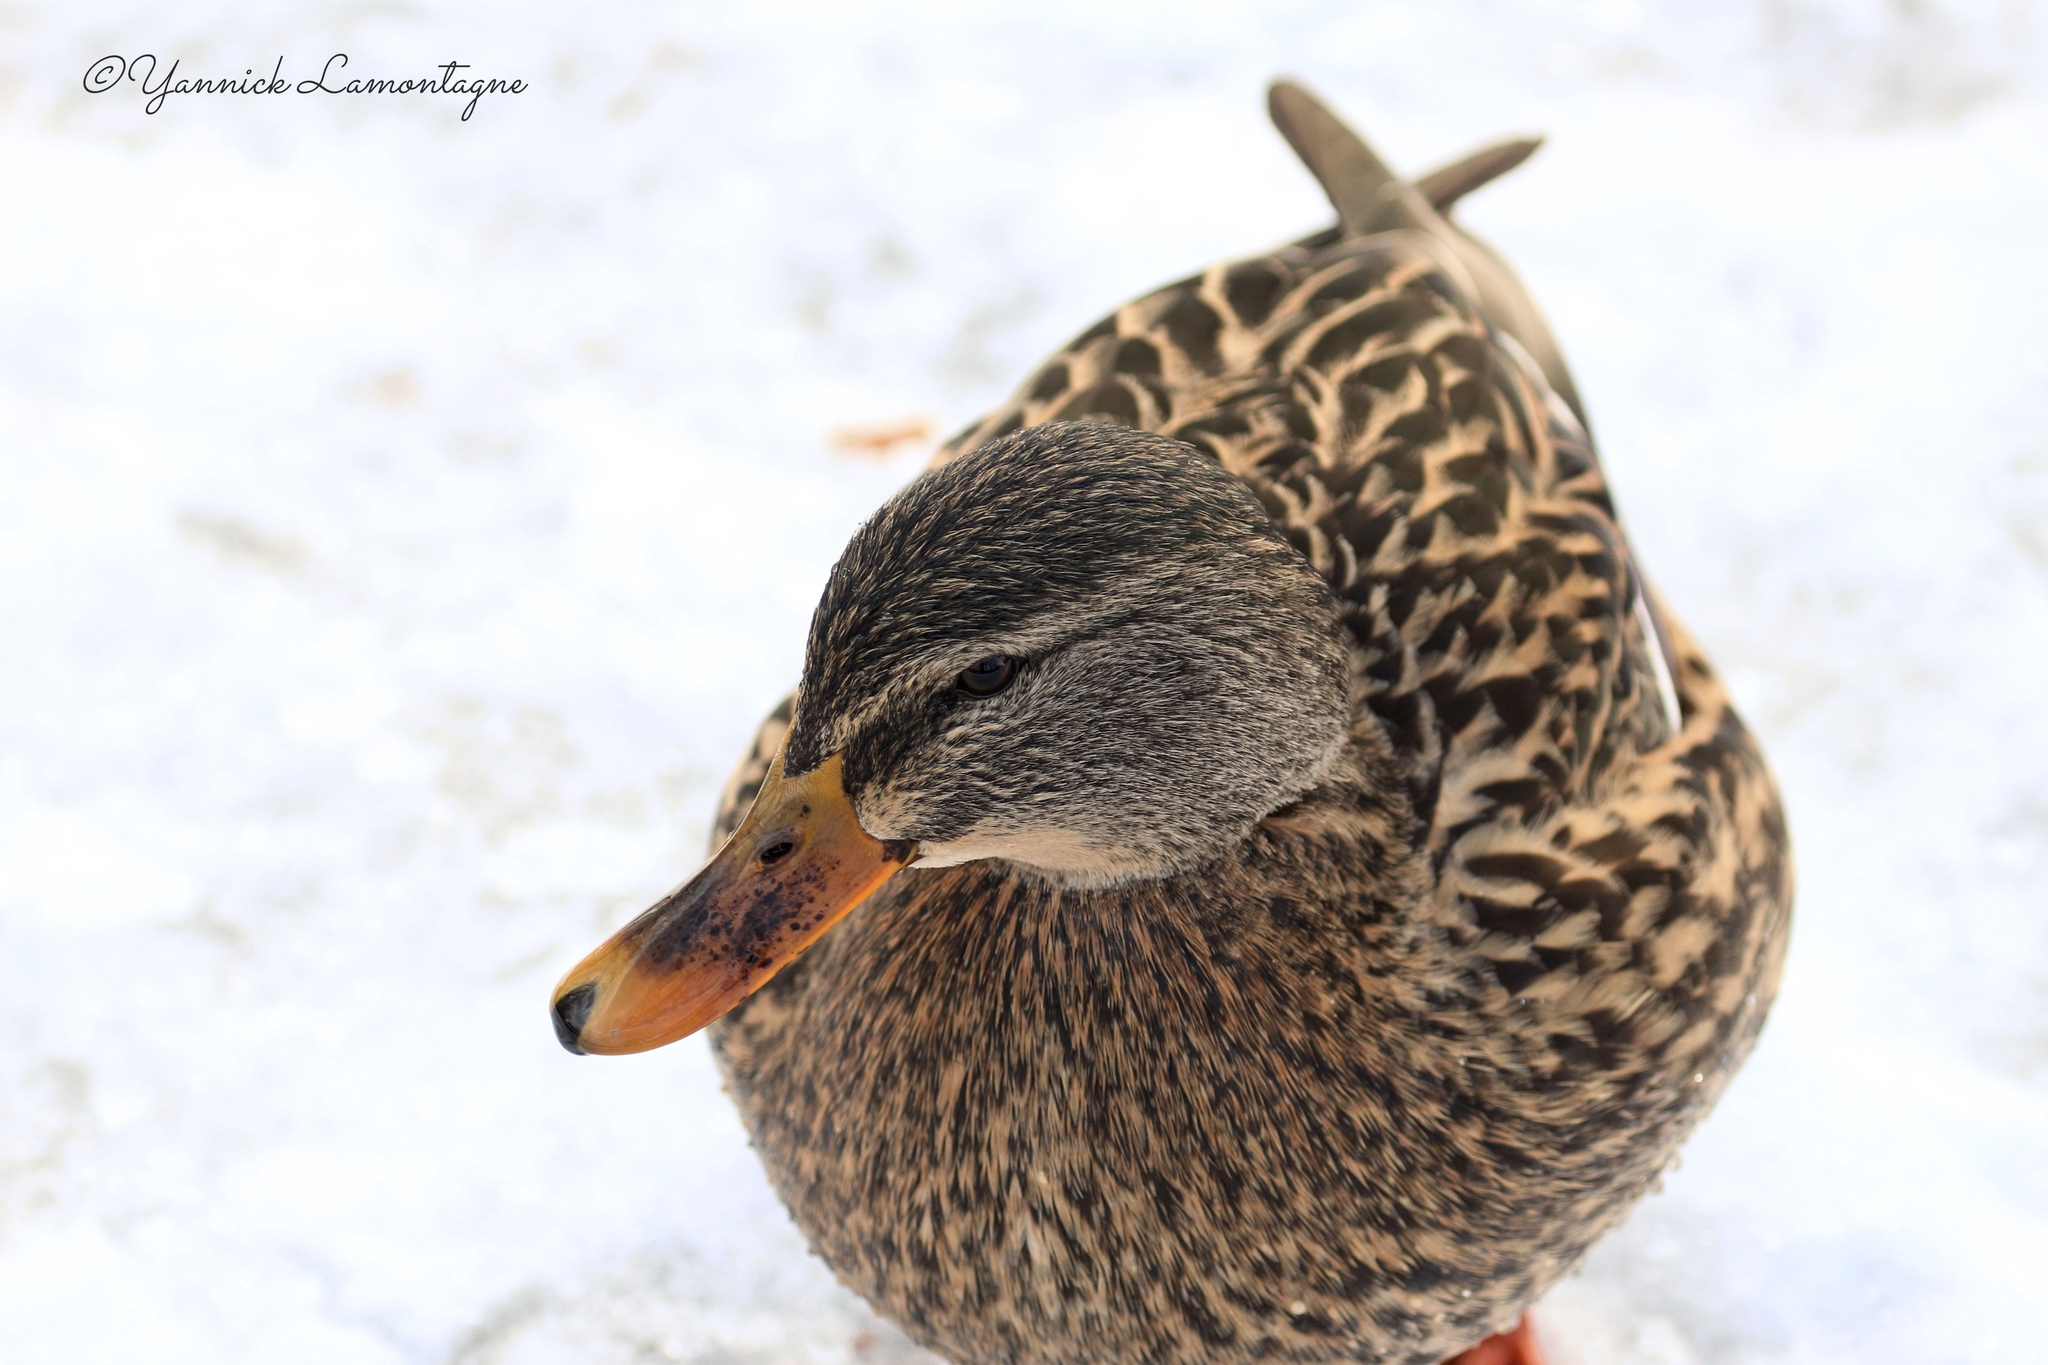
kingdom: Animalia
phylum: Chordata
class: Aves
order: Anseriformes
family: Anatidae
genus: Anas
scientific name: Anas platyrhynchos
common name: Mallard
